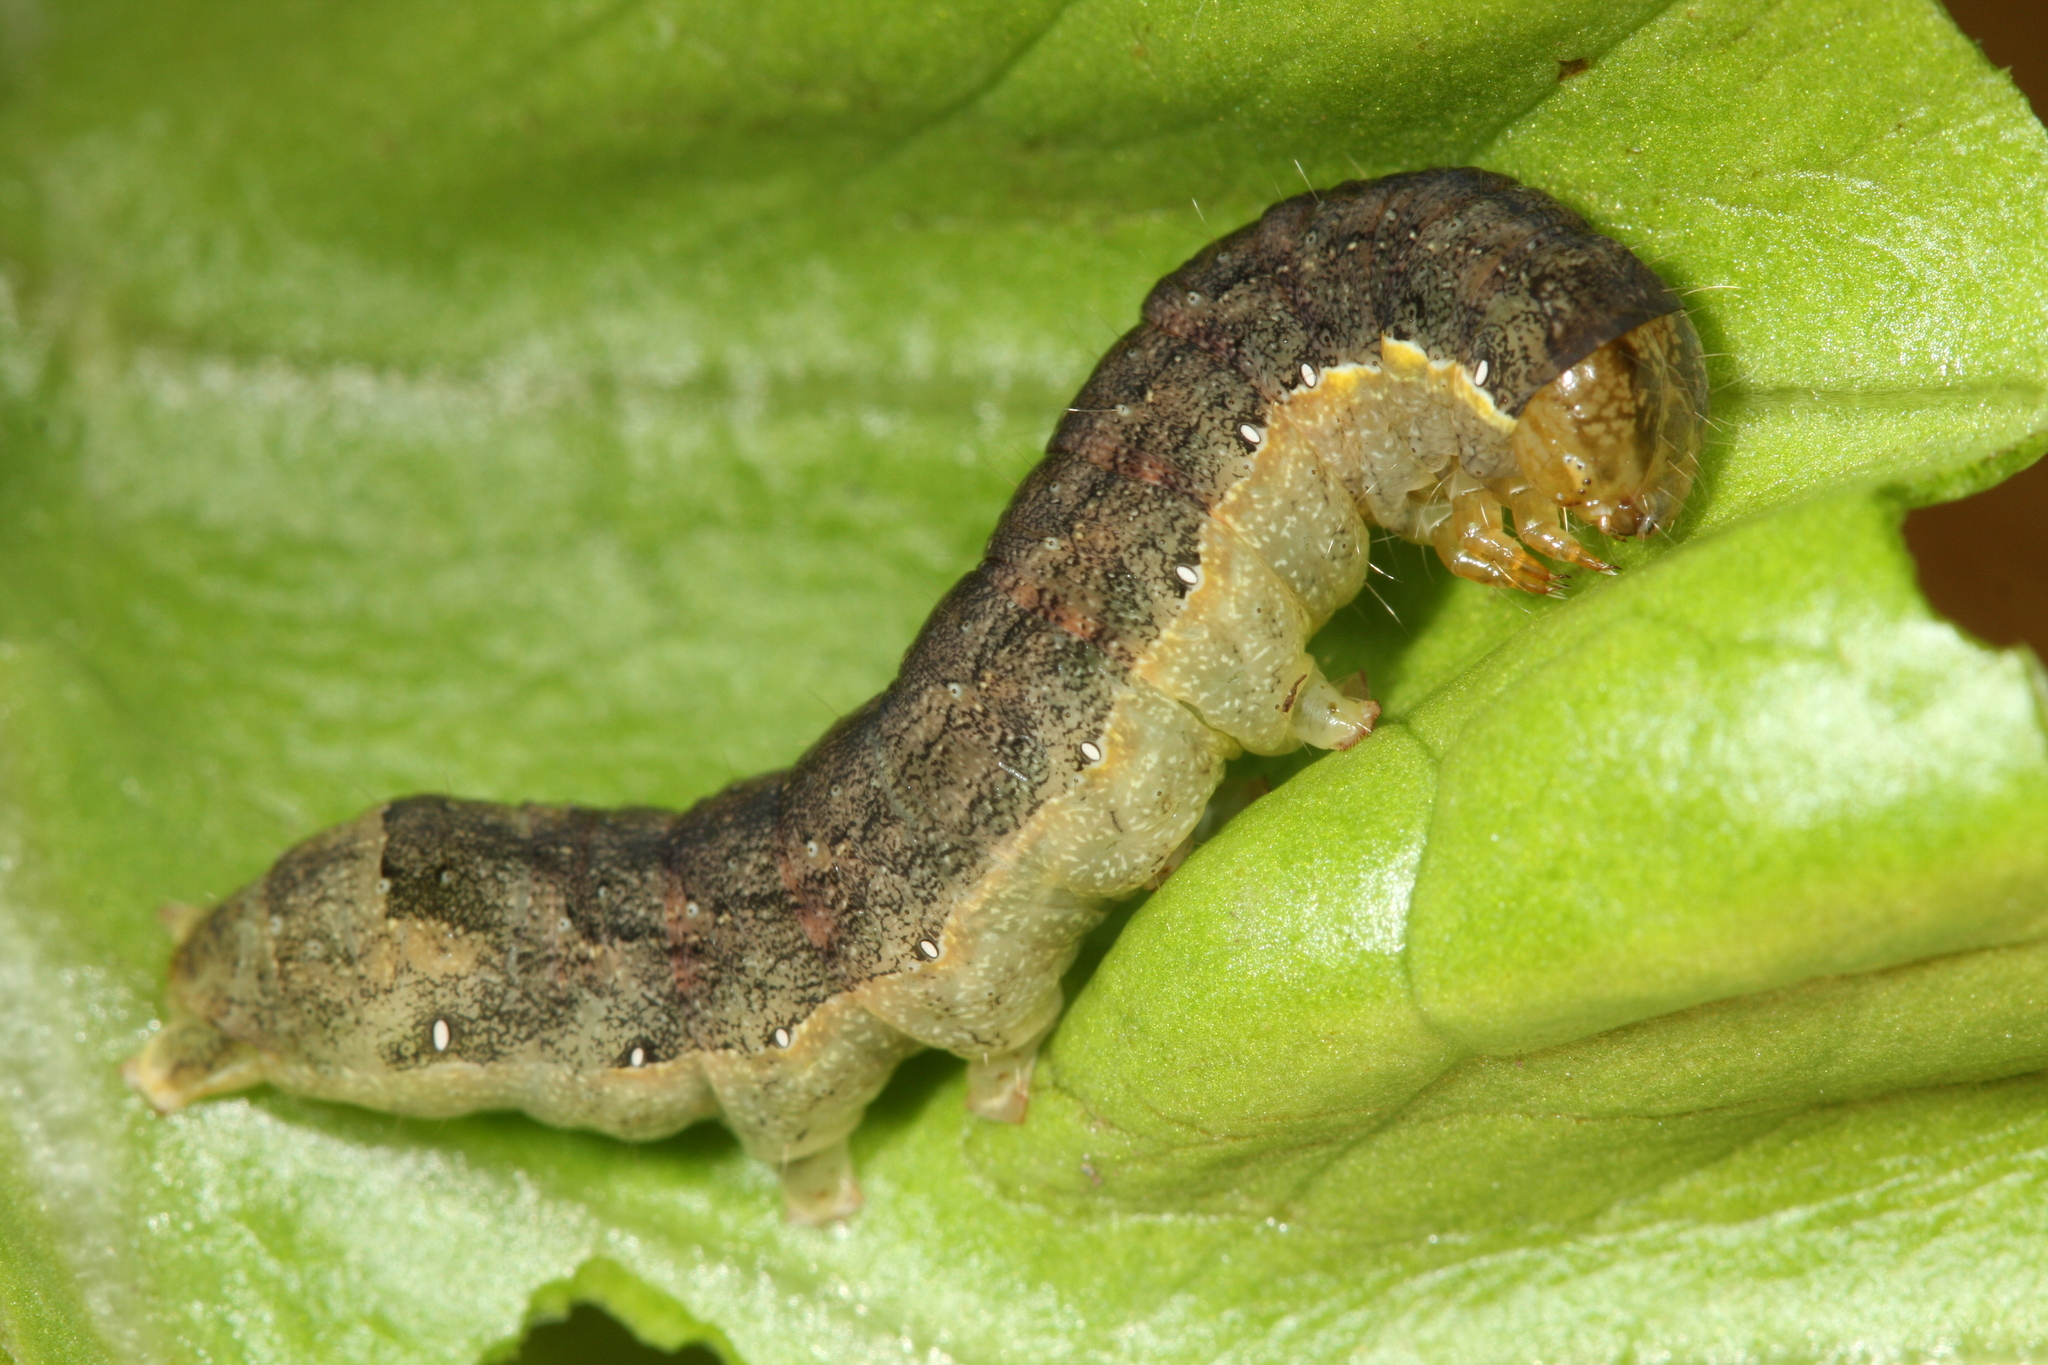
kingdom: Animalia
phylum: Arthropoda
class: Insecta
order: Lepidoptera
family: Noctuidae
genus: Mamestra
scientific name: Mamestra brassicae
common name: Cabbage moth
